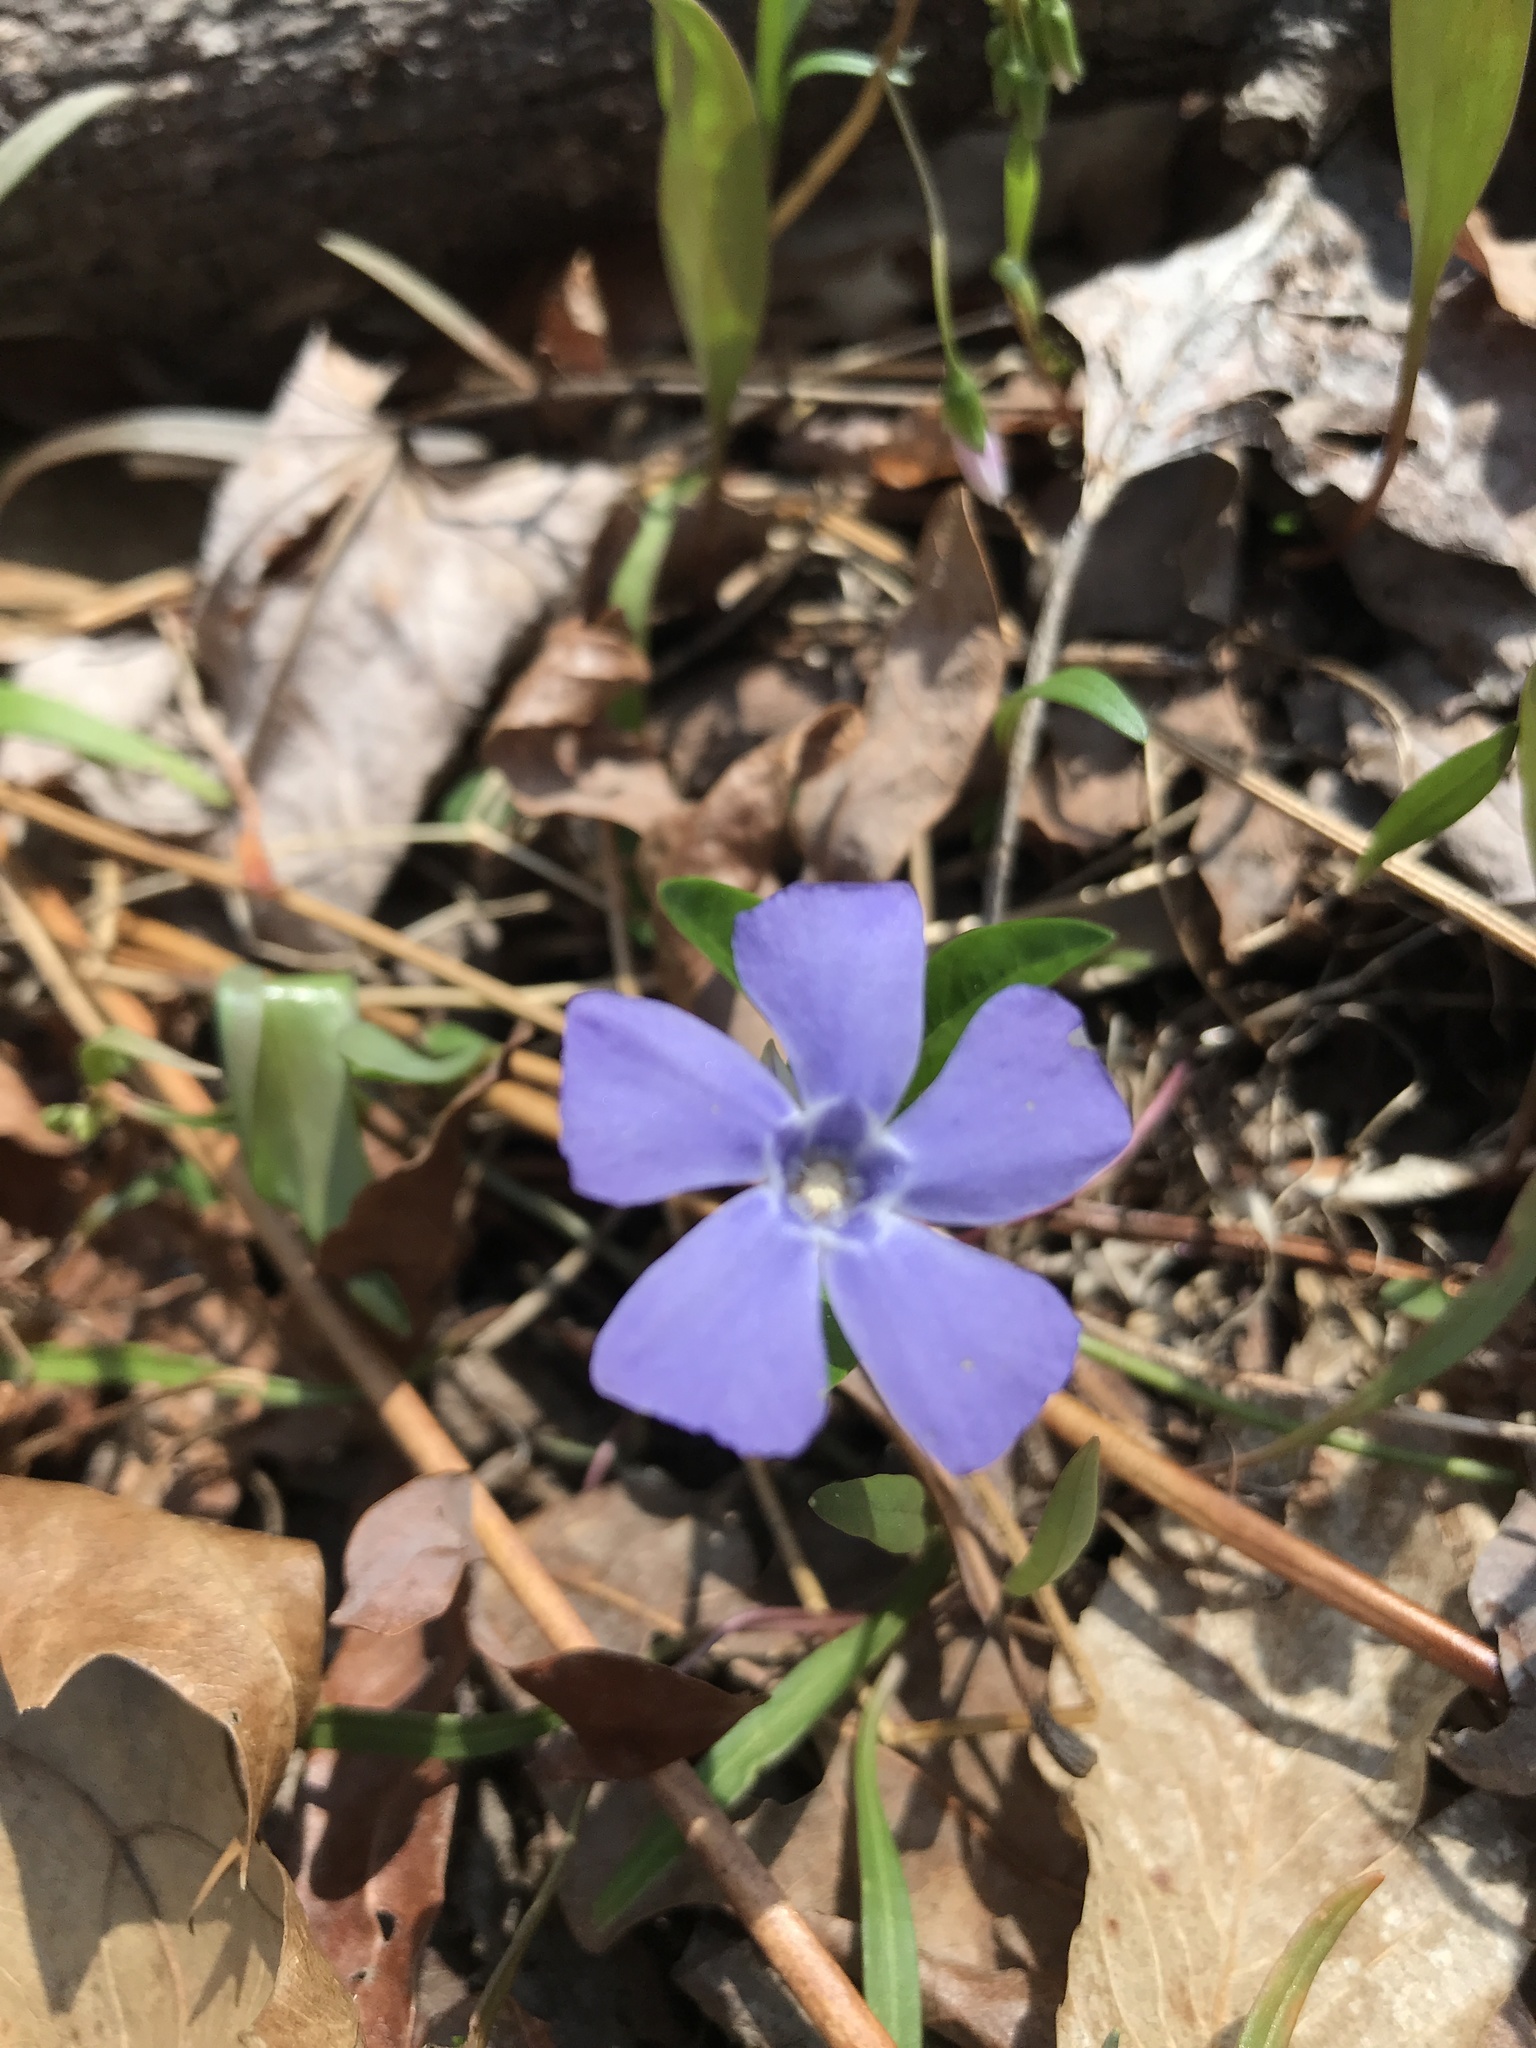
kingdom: Plantae
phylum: Tracheophyta
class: Magnoliopsida
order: Gentianales
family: Apocynaceae
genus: Vinca
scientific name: Vinca minor
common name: Lesser periwinkle
